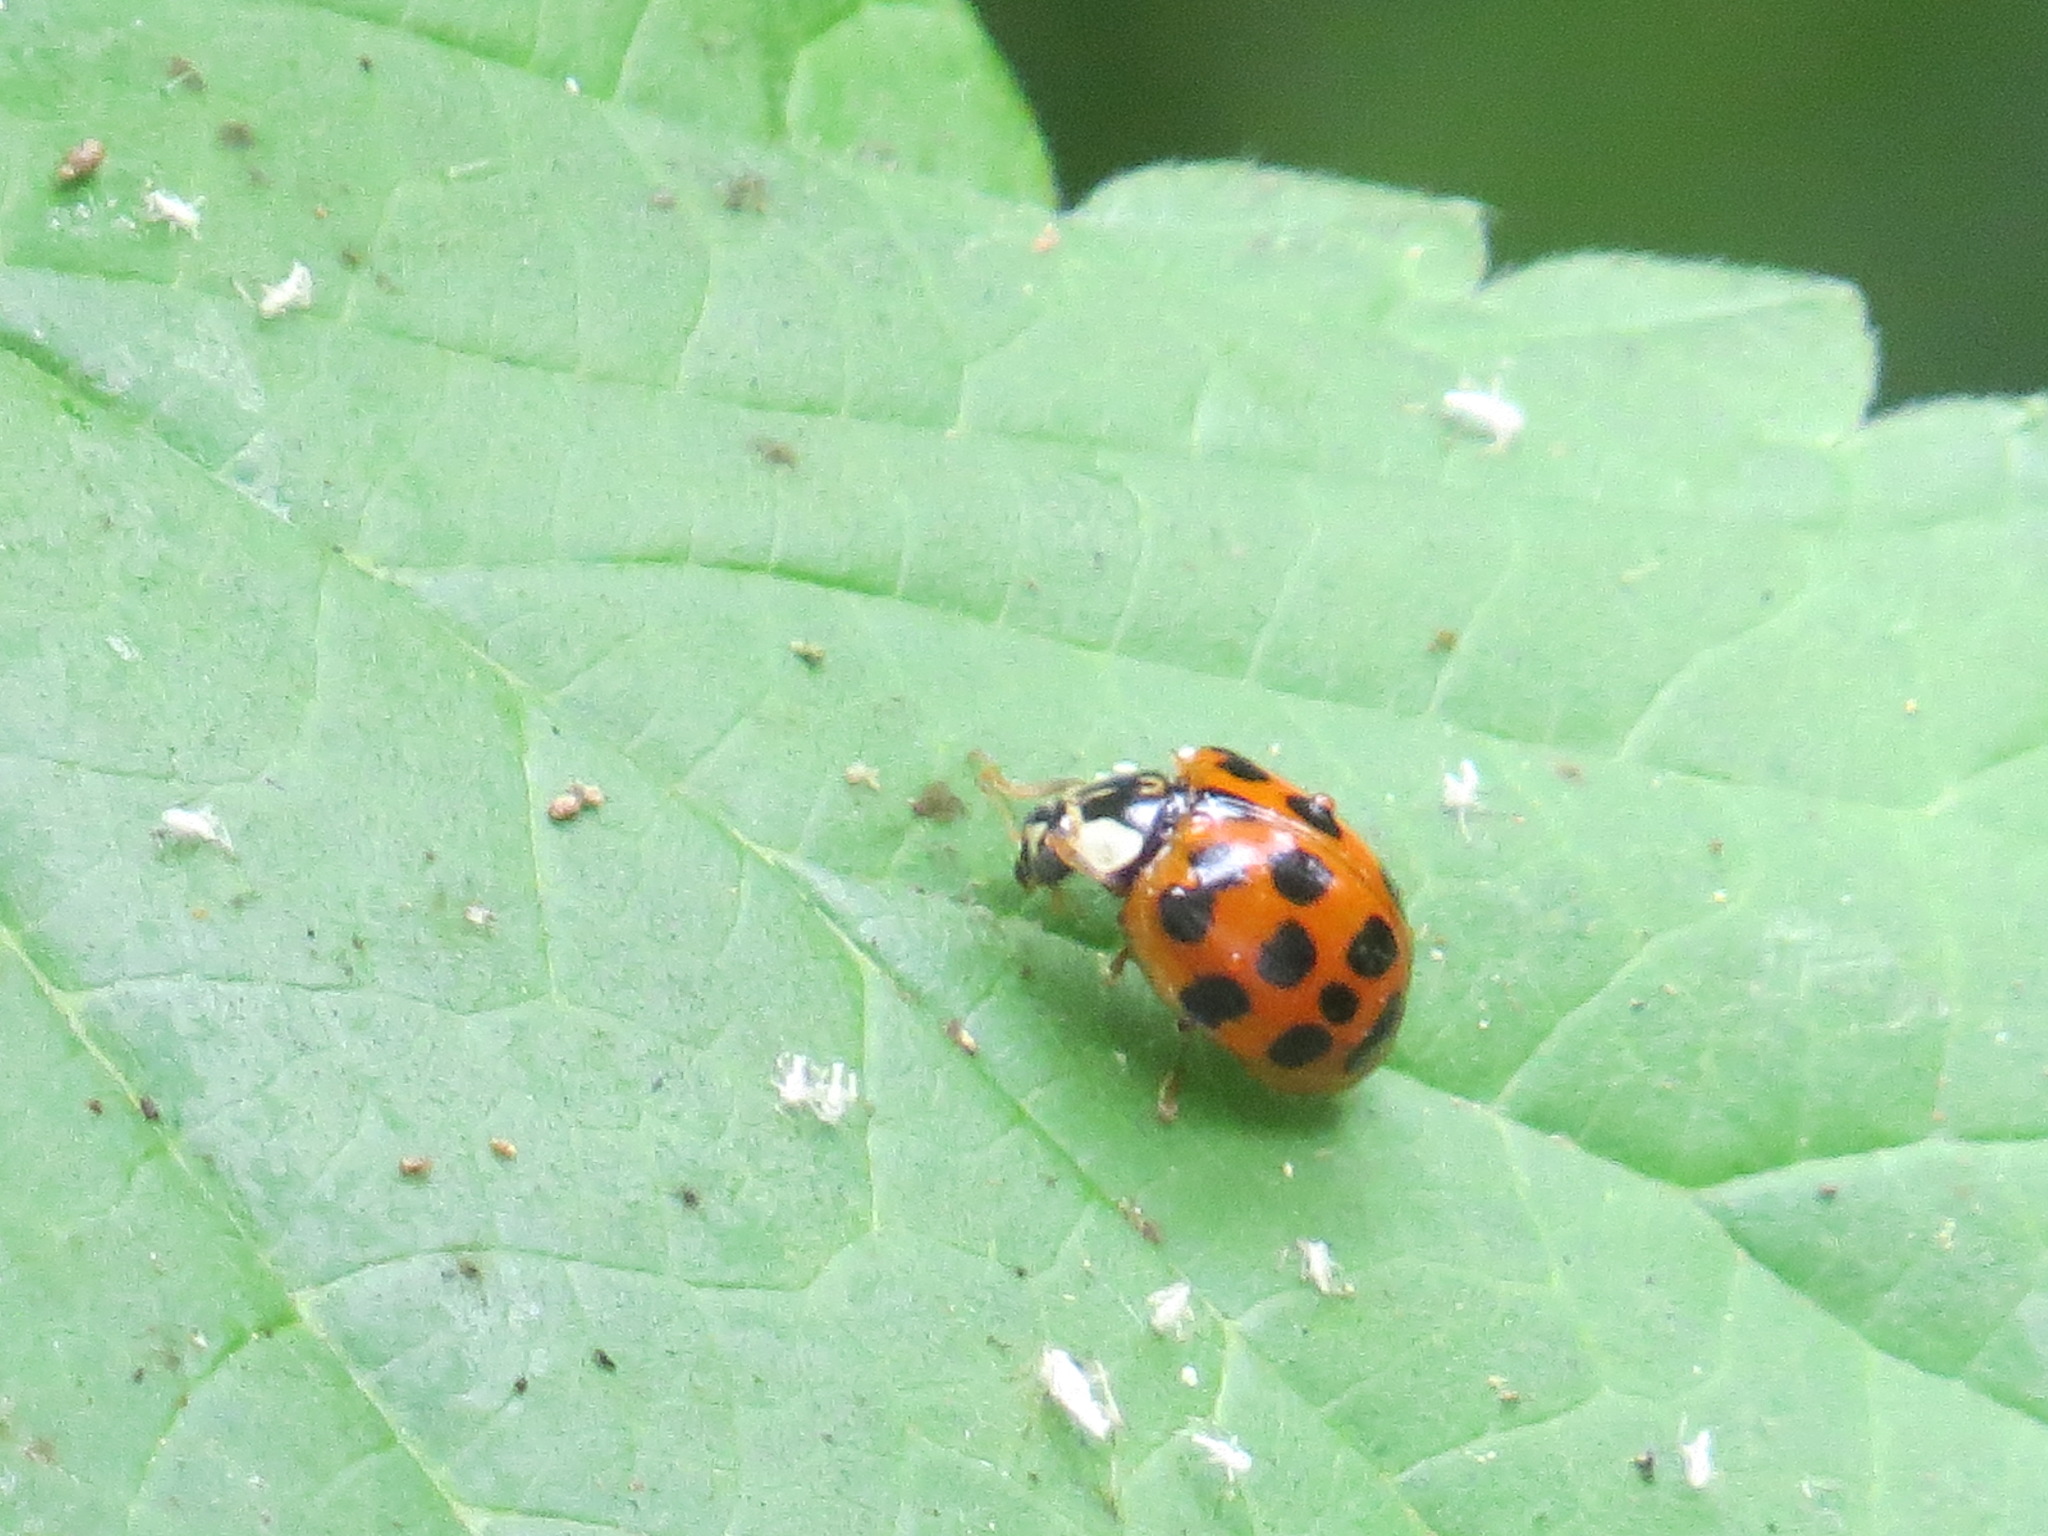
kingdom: Animalia
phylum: Arthropoda
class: Insecta
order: Coleoptera
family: Coccinellidae
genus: Harmonia
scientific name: Harmonia axyridis
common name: Harlequin ladybird
